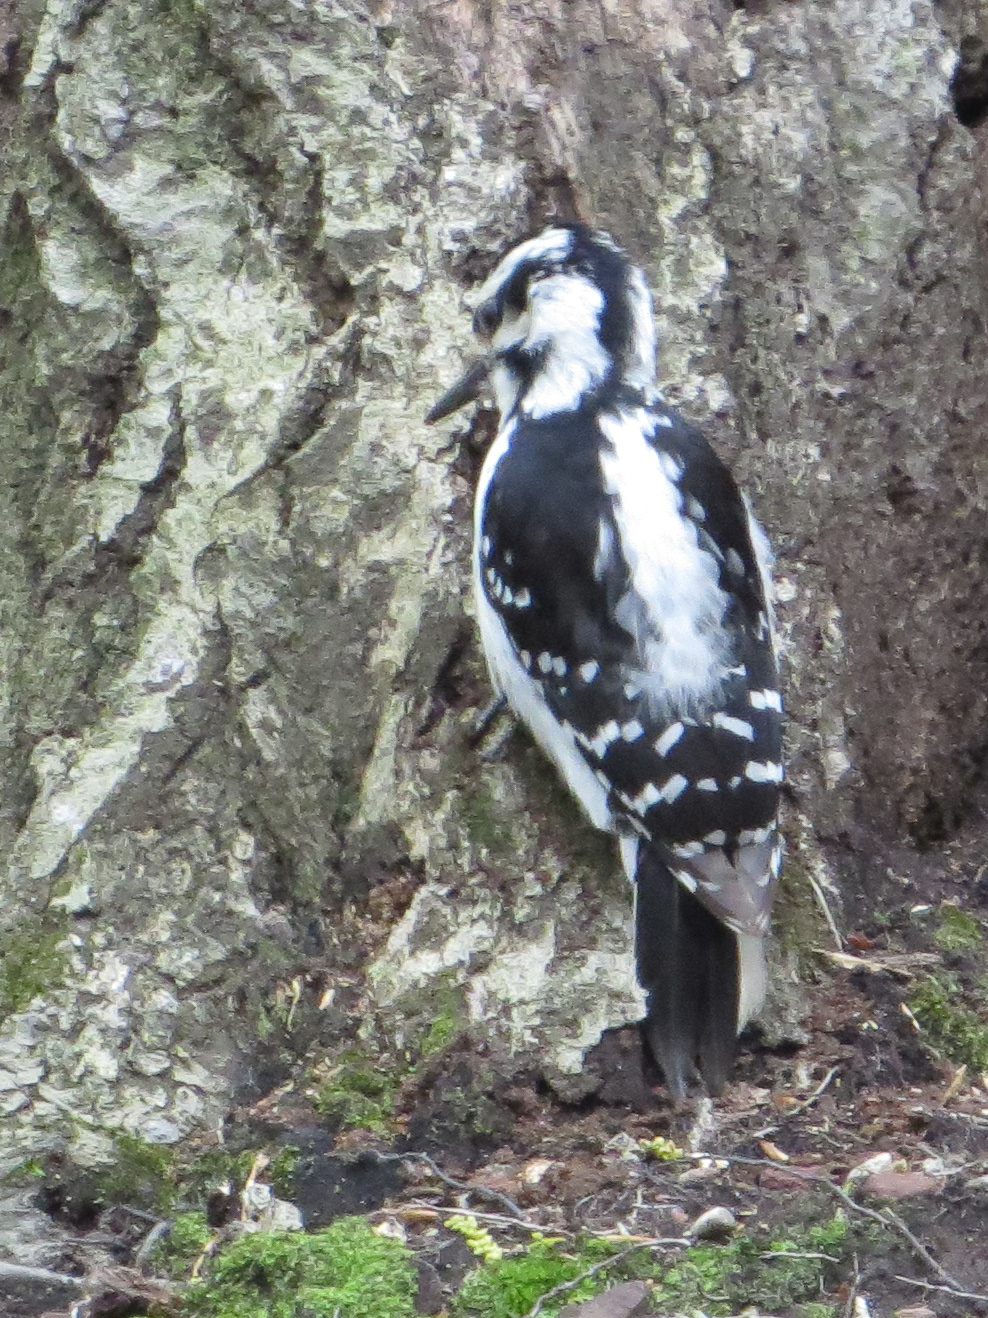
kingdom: Animalia
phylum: Chordata
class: Aves
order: Piciformes
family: Picidae
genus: Leuconotopicus
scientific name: Leuconotopicus villosus
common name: Hairy woodpecker
